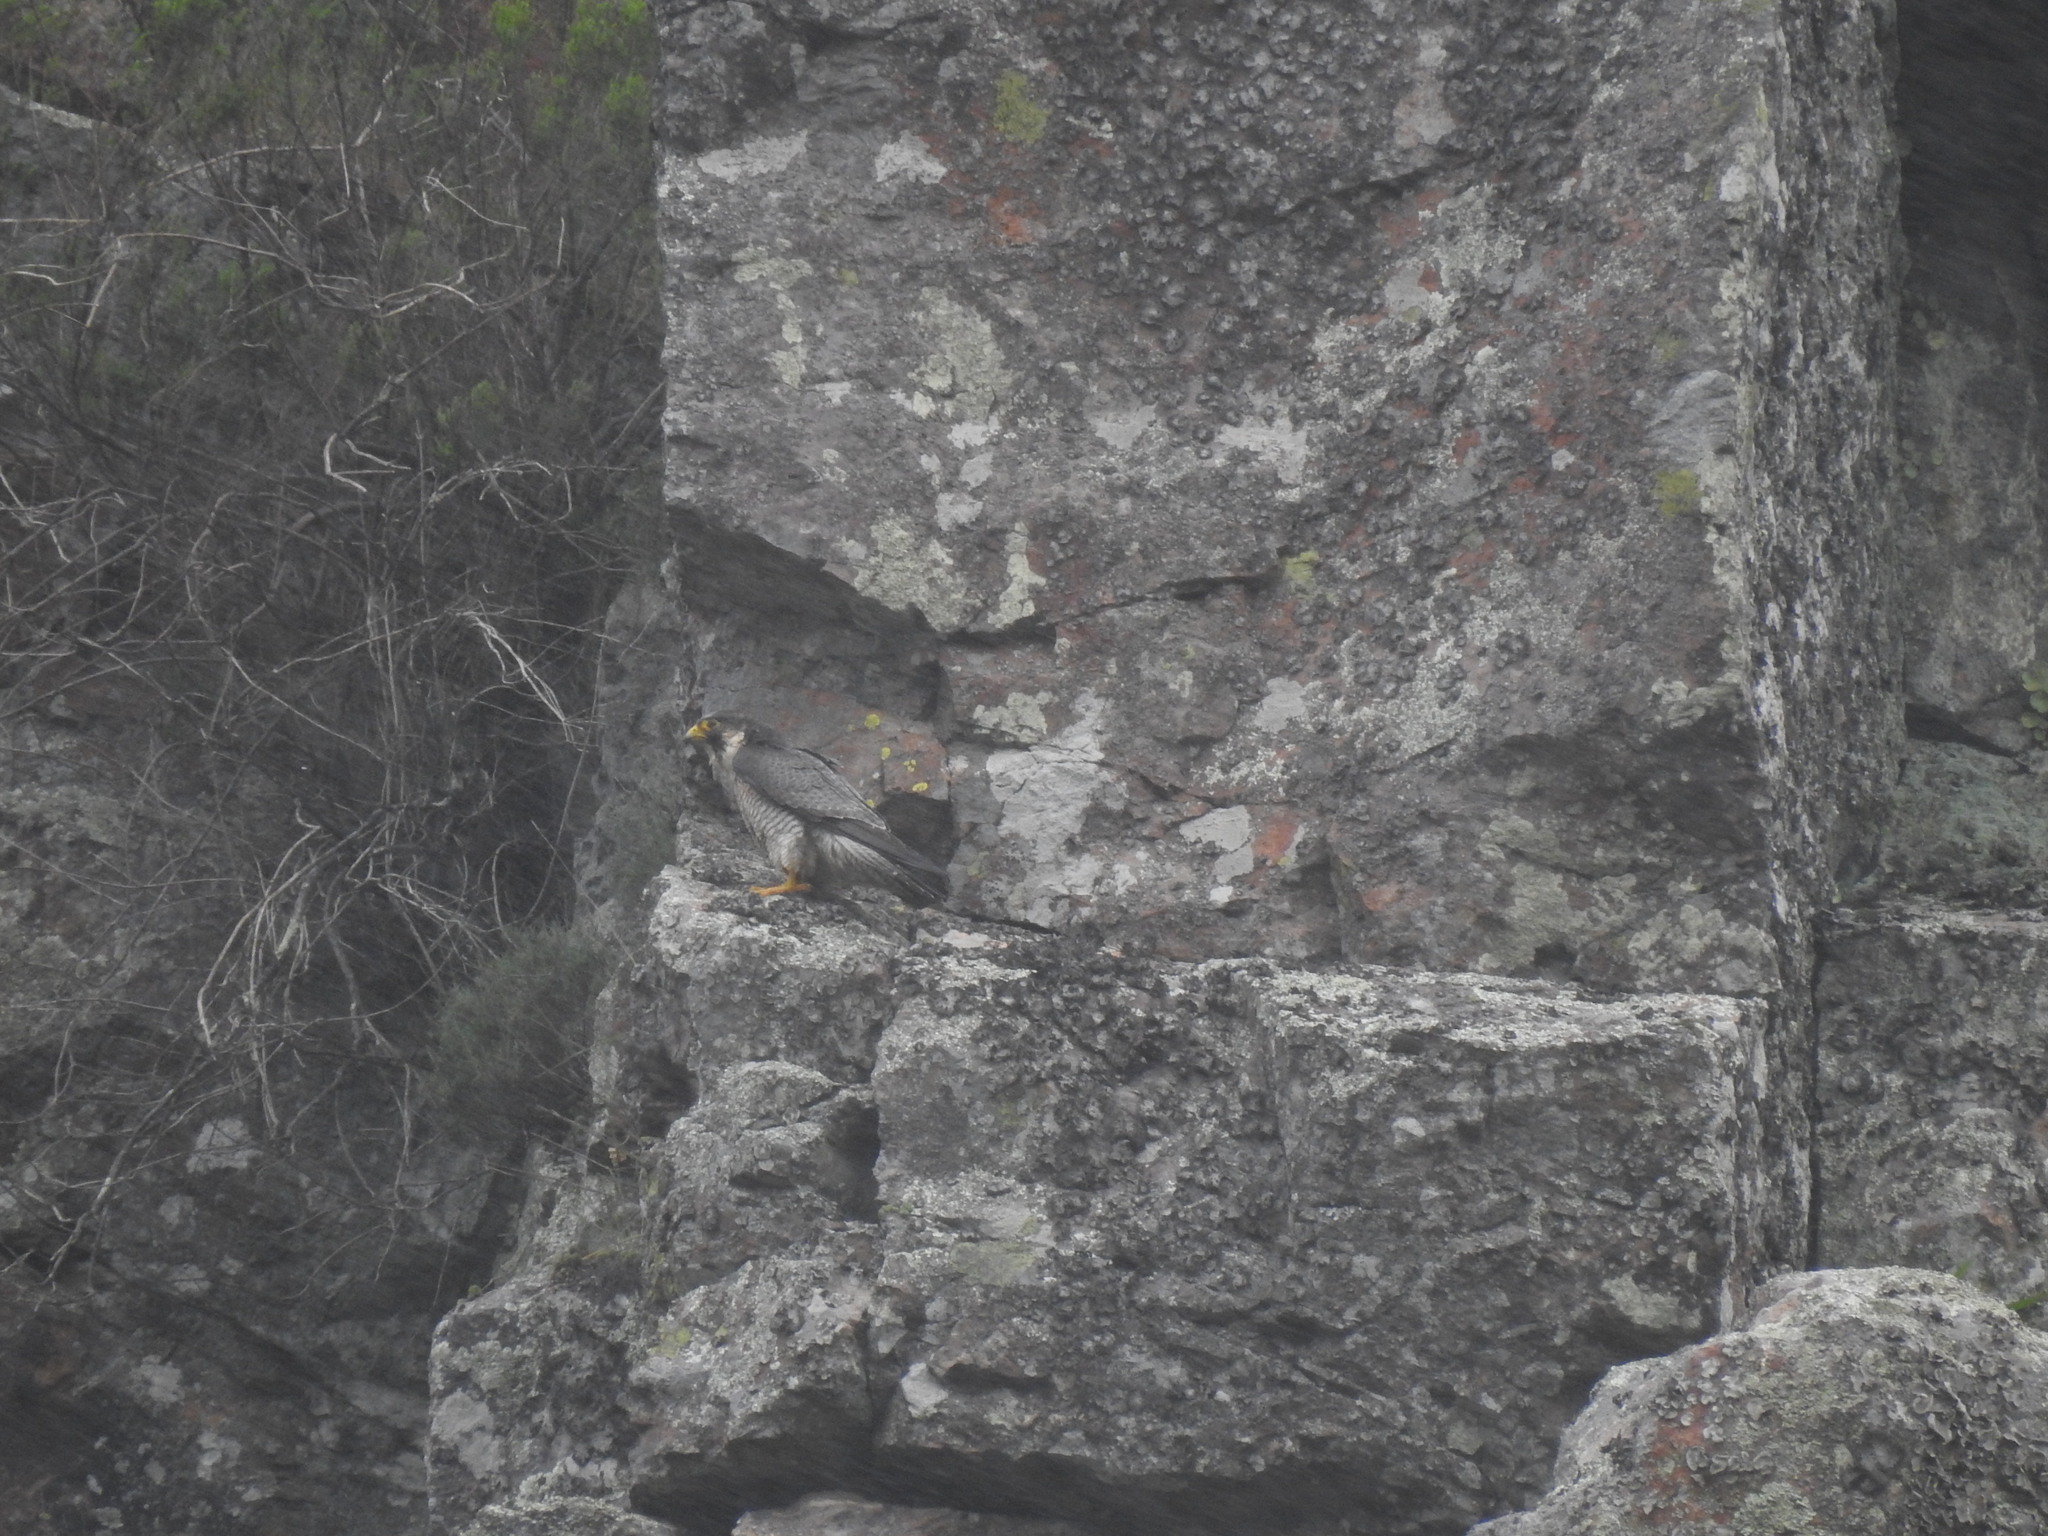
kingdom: Animalia
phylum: Chordata
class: Aves
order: Falconiformes
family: Falconidae
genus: Falco
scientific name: Falco peregrinus
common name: Peregrine falcon
